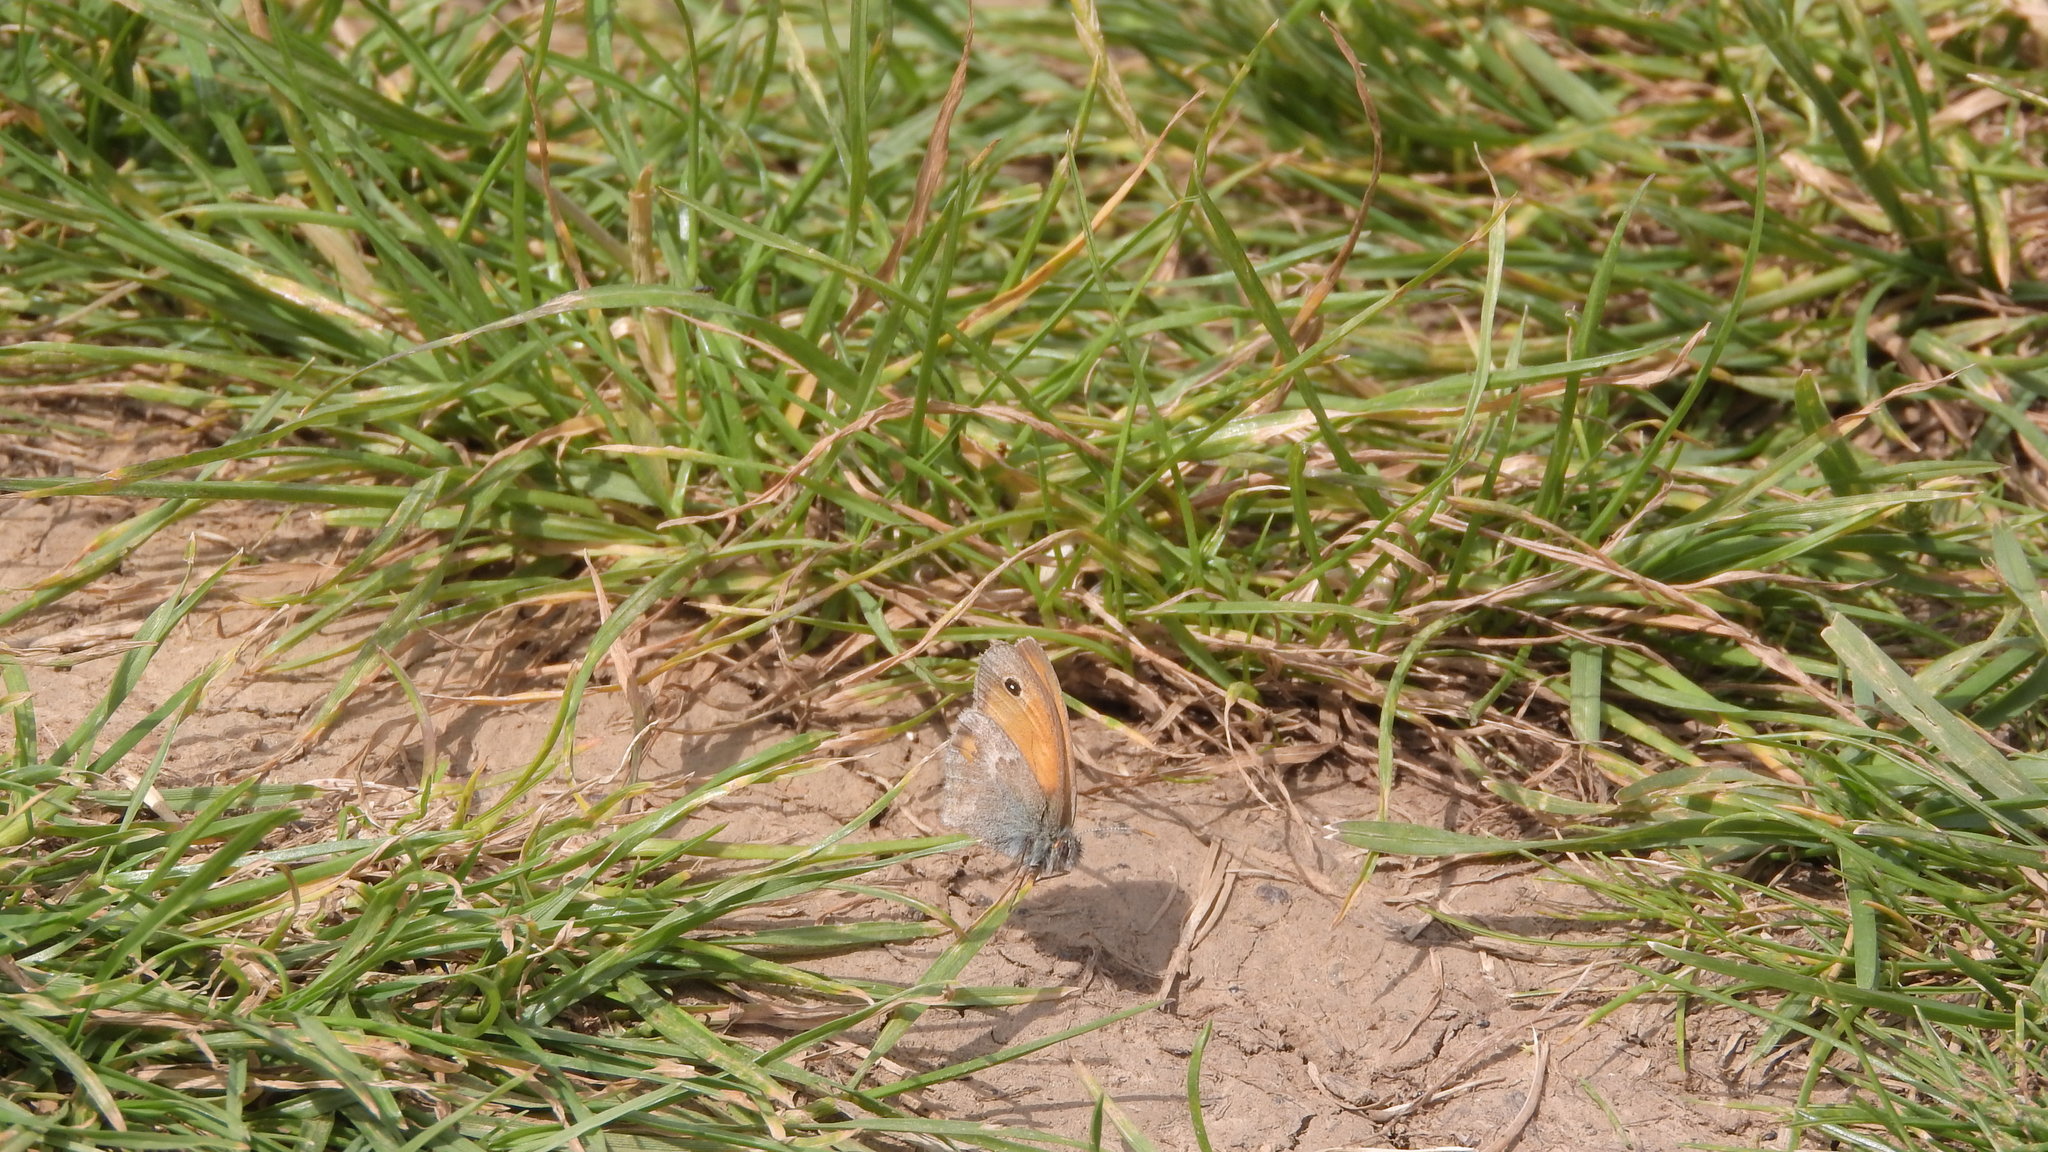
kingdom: Animalia
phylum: Arthropoda
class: Insecta
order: Lepidoptera
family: Nymphalidae
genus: Coenonympha
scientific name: Coenonympha pamphilus
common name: Small heath
